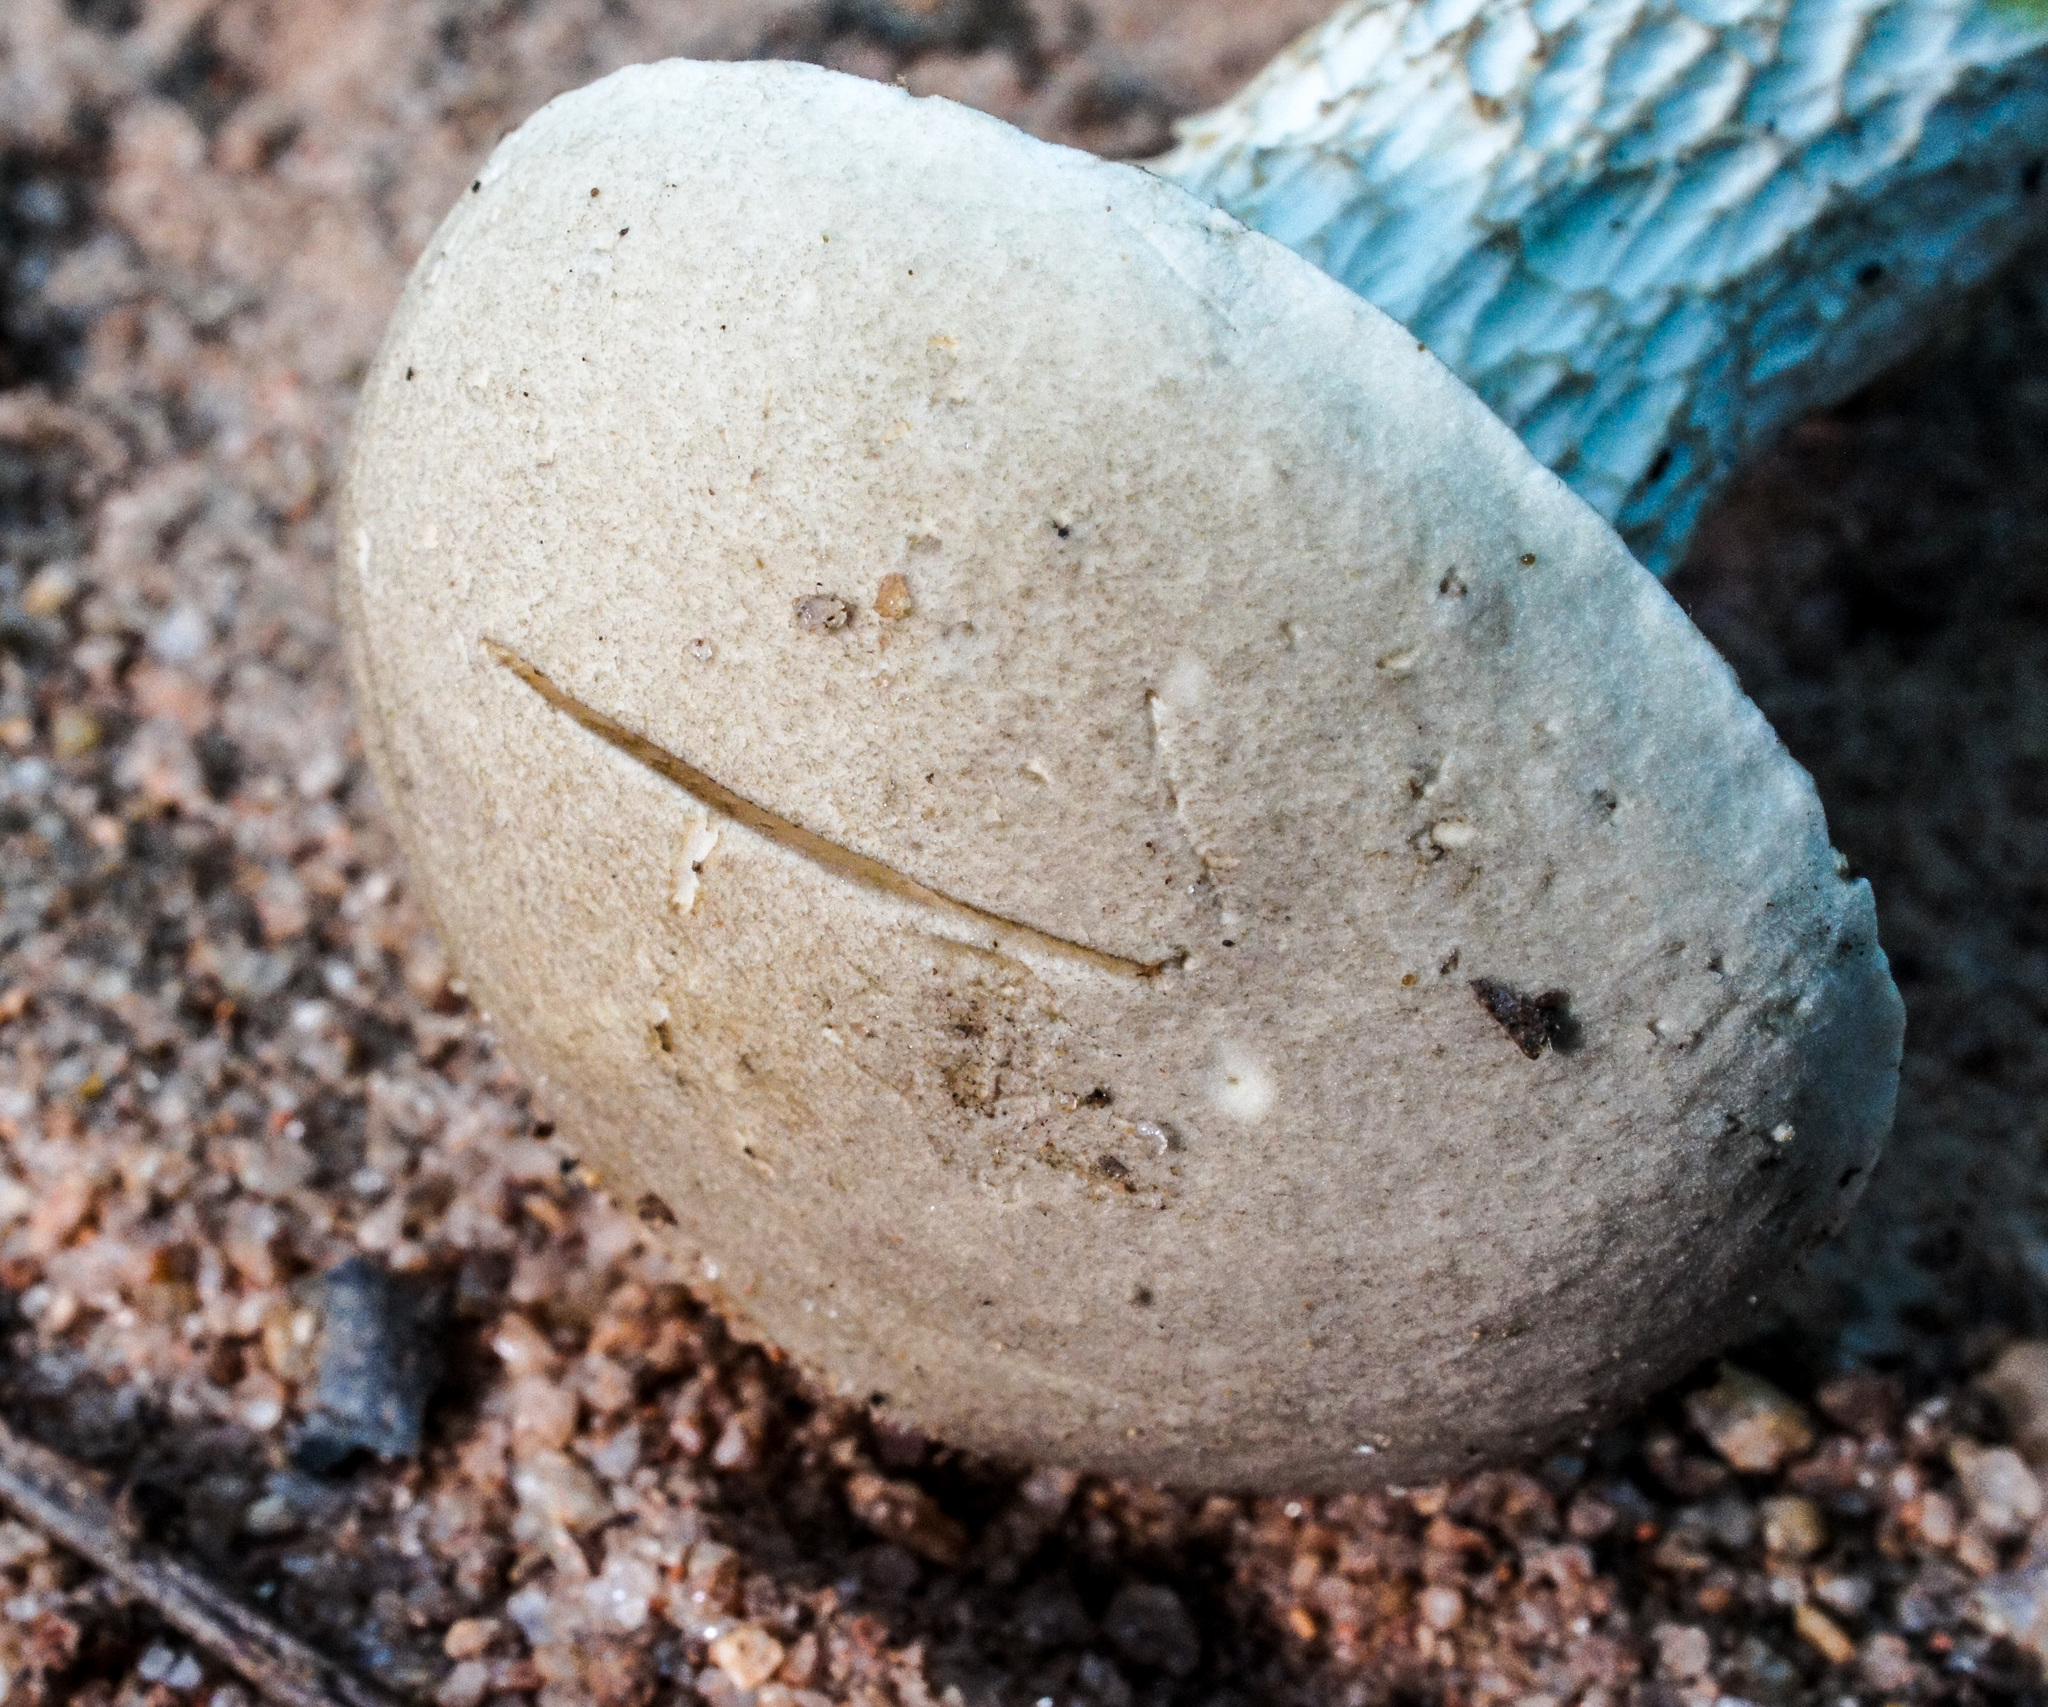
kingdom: Fungi
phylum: Basidiomycota
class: Agaricomycetes
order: Boletales
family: Boletaceae
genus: Retiboletus
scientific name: Retiboletus griseus
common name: Grey bolete
